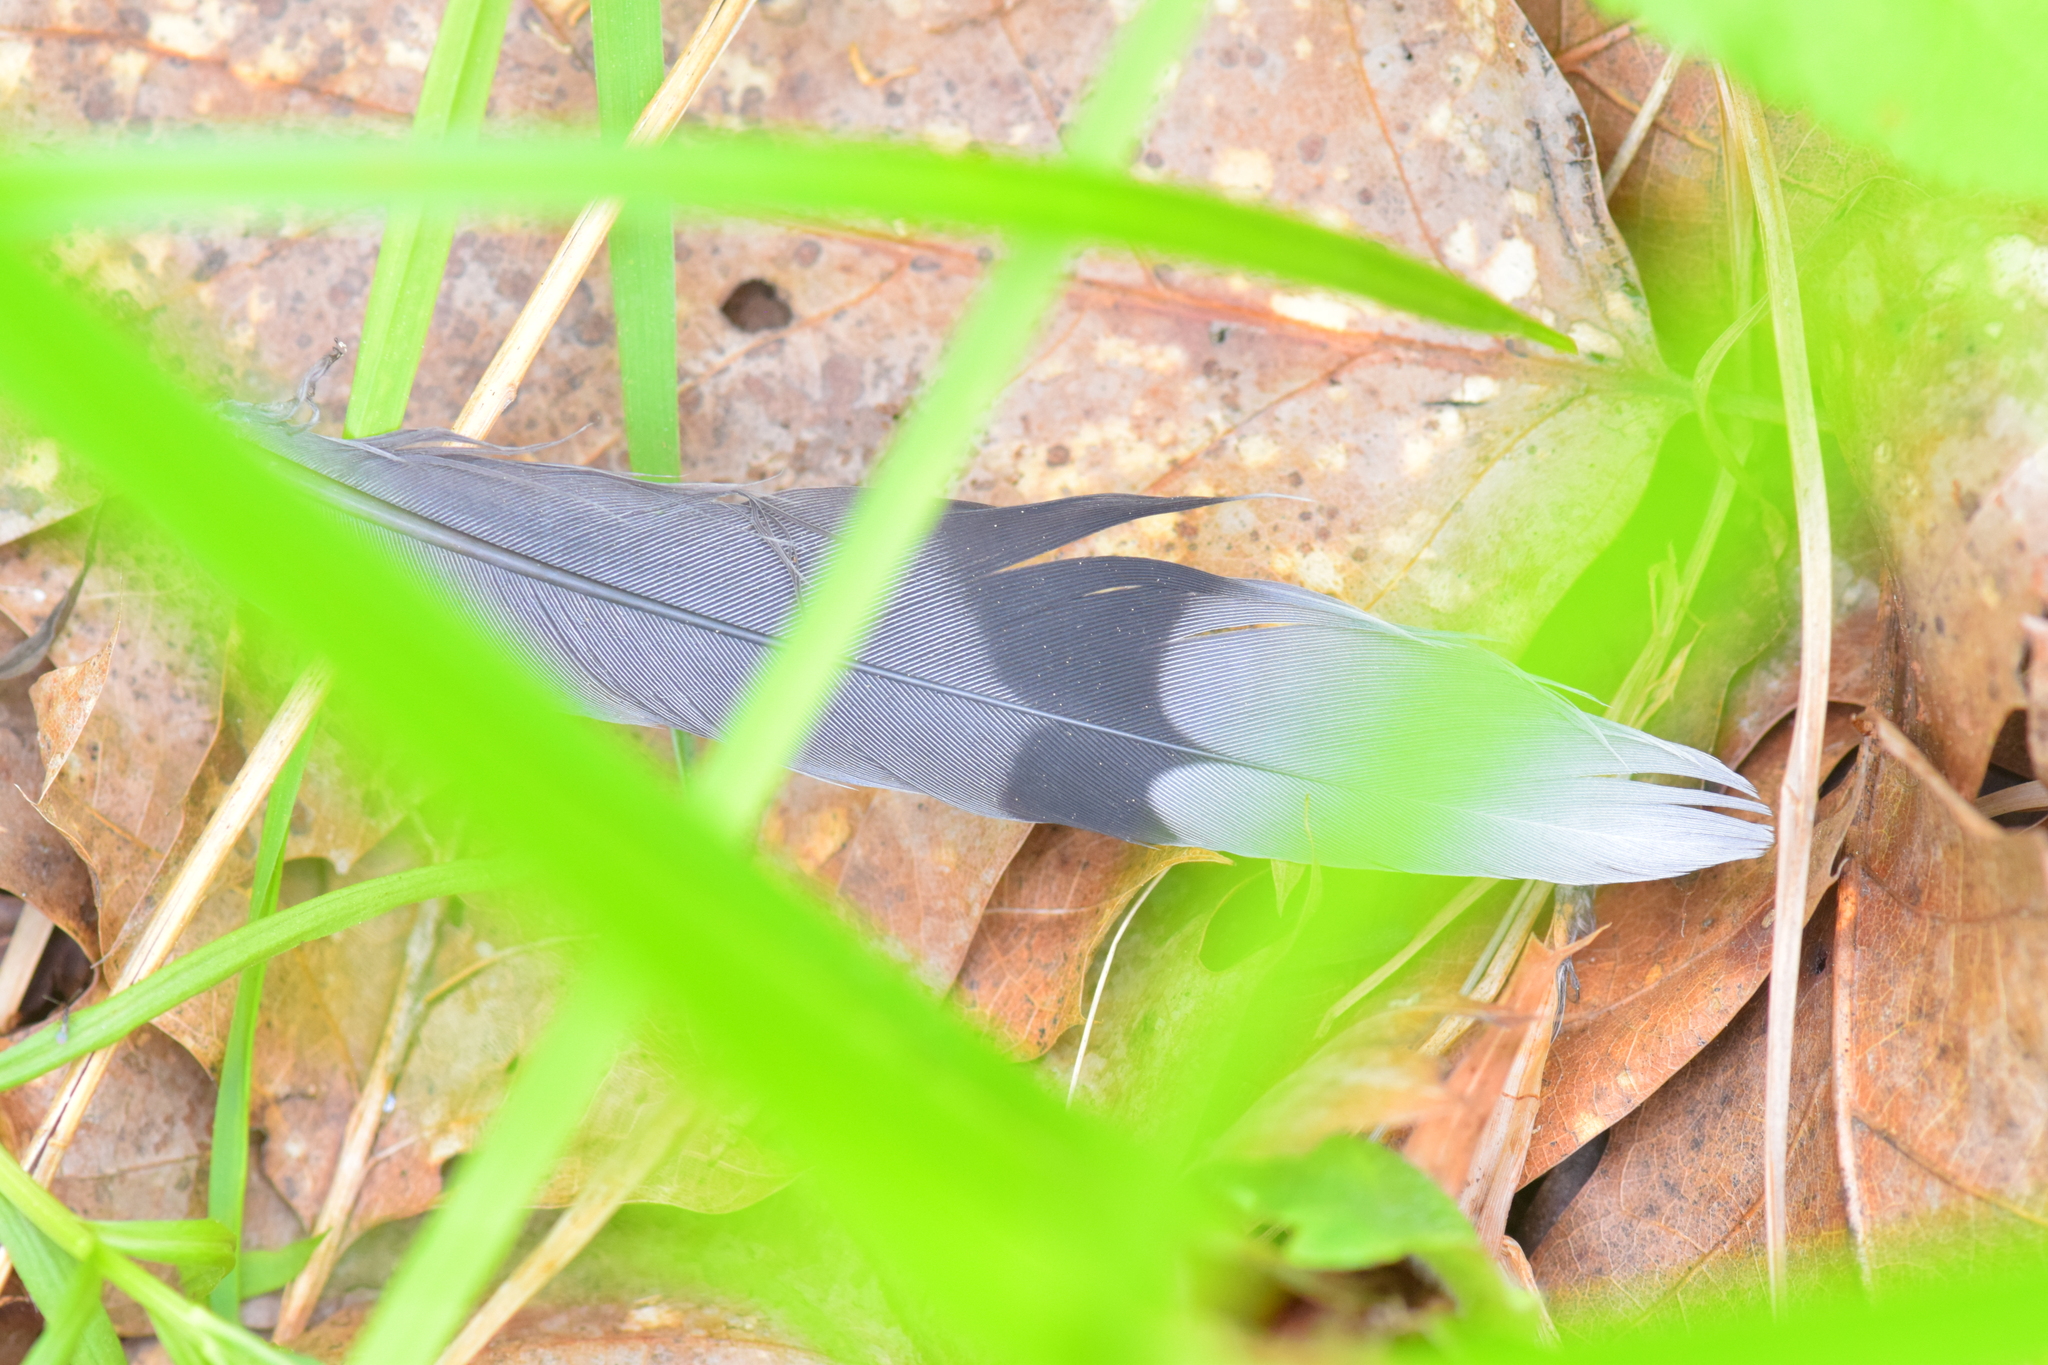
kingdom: Animalia
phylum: Chordata
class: Aves
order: Columbiformes
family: Columbidae
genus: Zenaida
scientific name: Zenaida macroura
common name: Mourning dove
